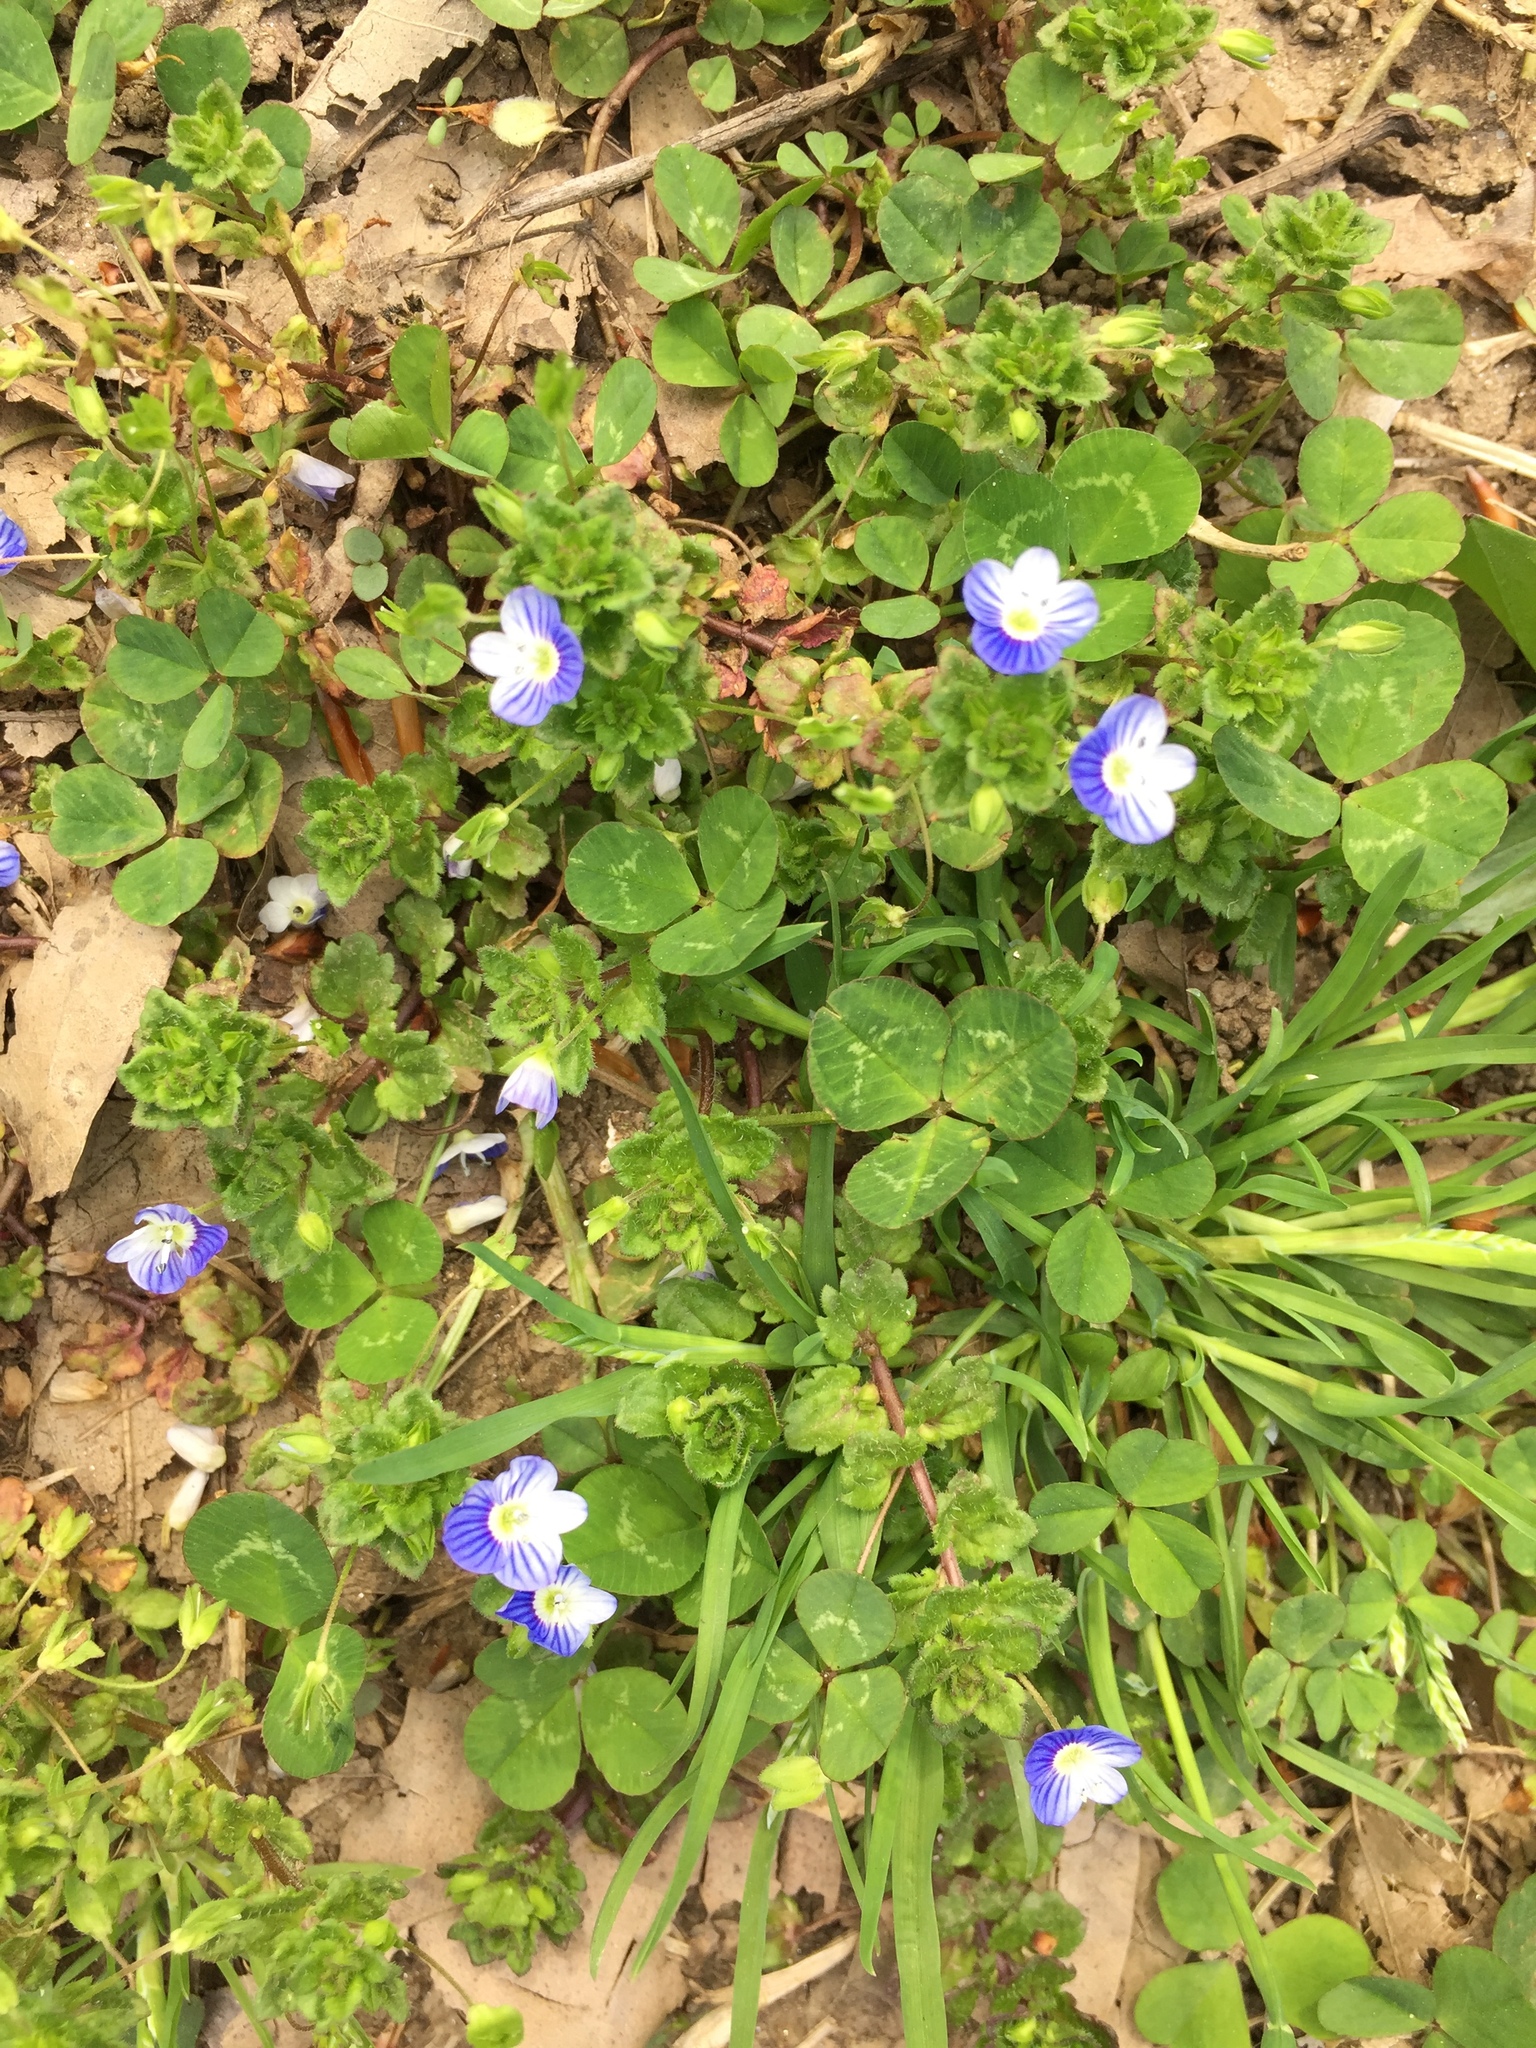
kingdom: Plantae
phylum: Tracheophyta
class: Magnoliopsida
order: Lamiales
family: Plantaginaceae
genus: Veronica
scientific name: Veronica persica
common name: Common field-speedwell
